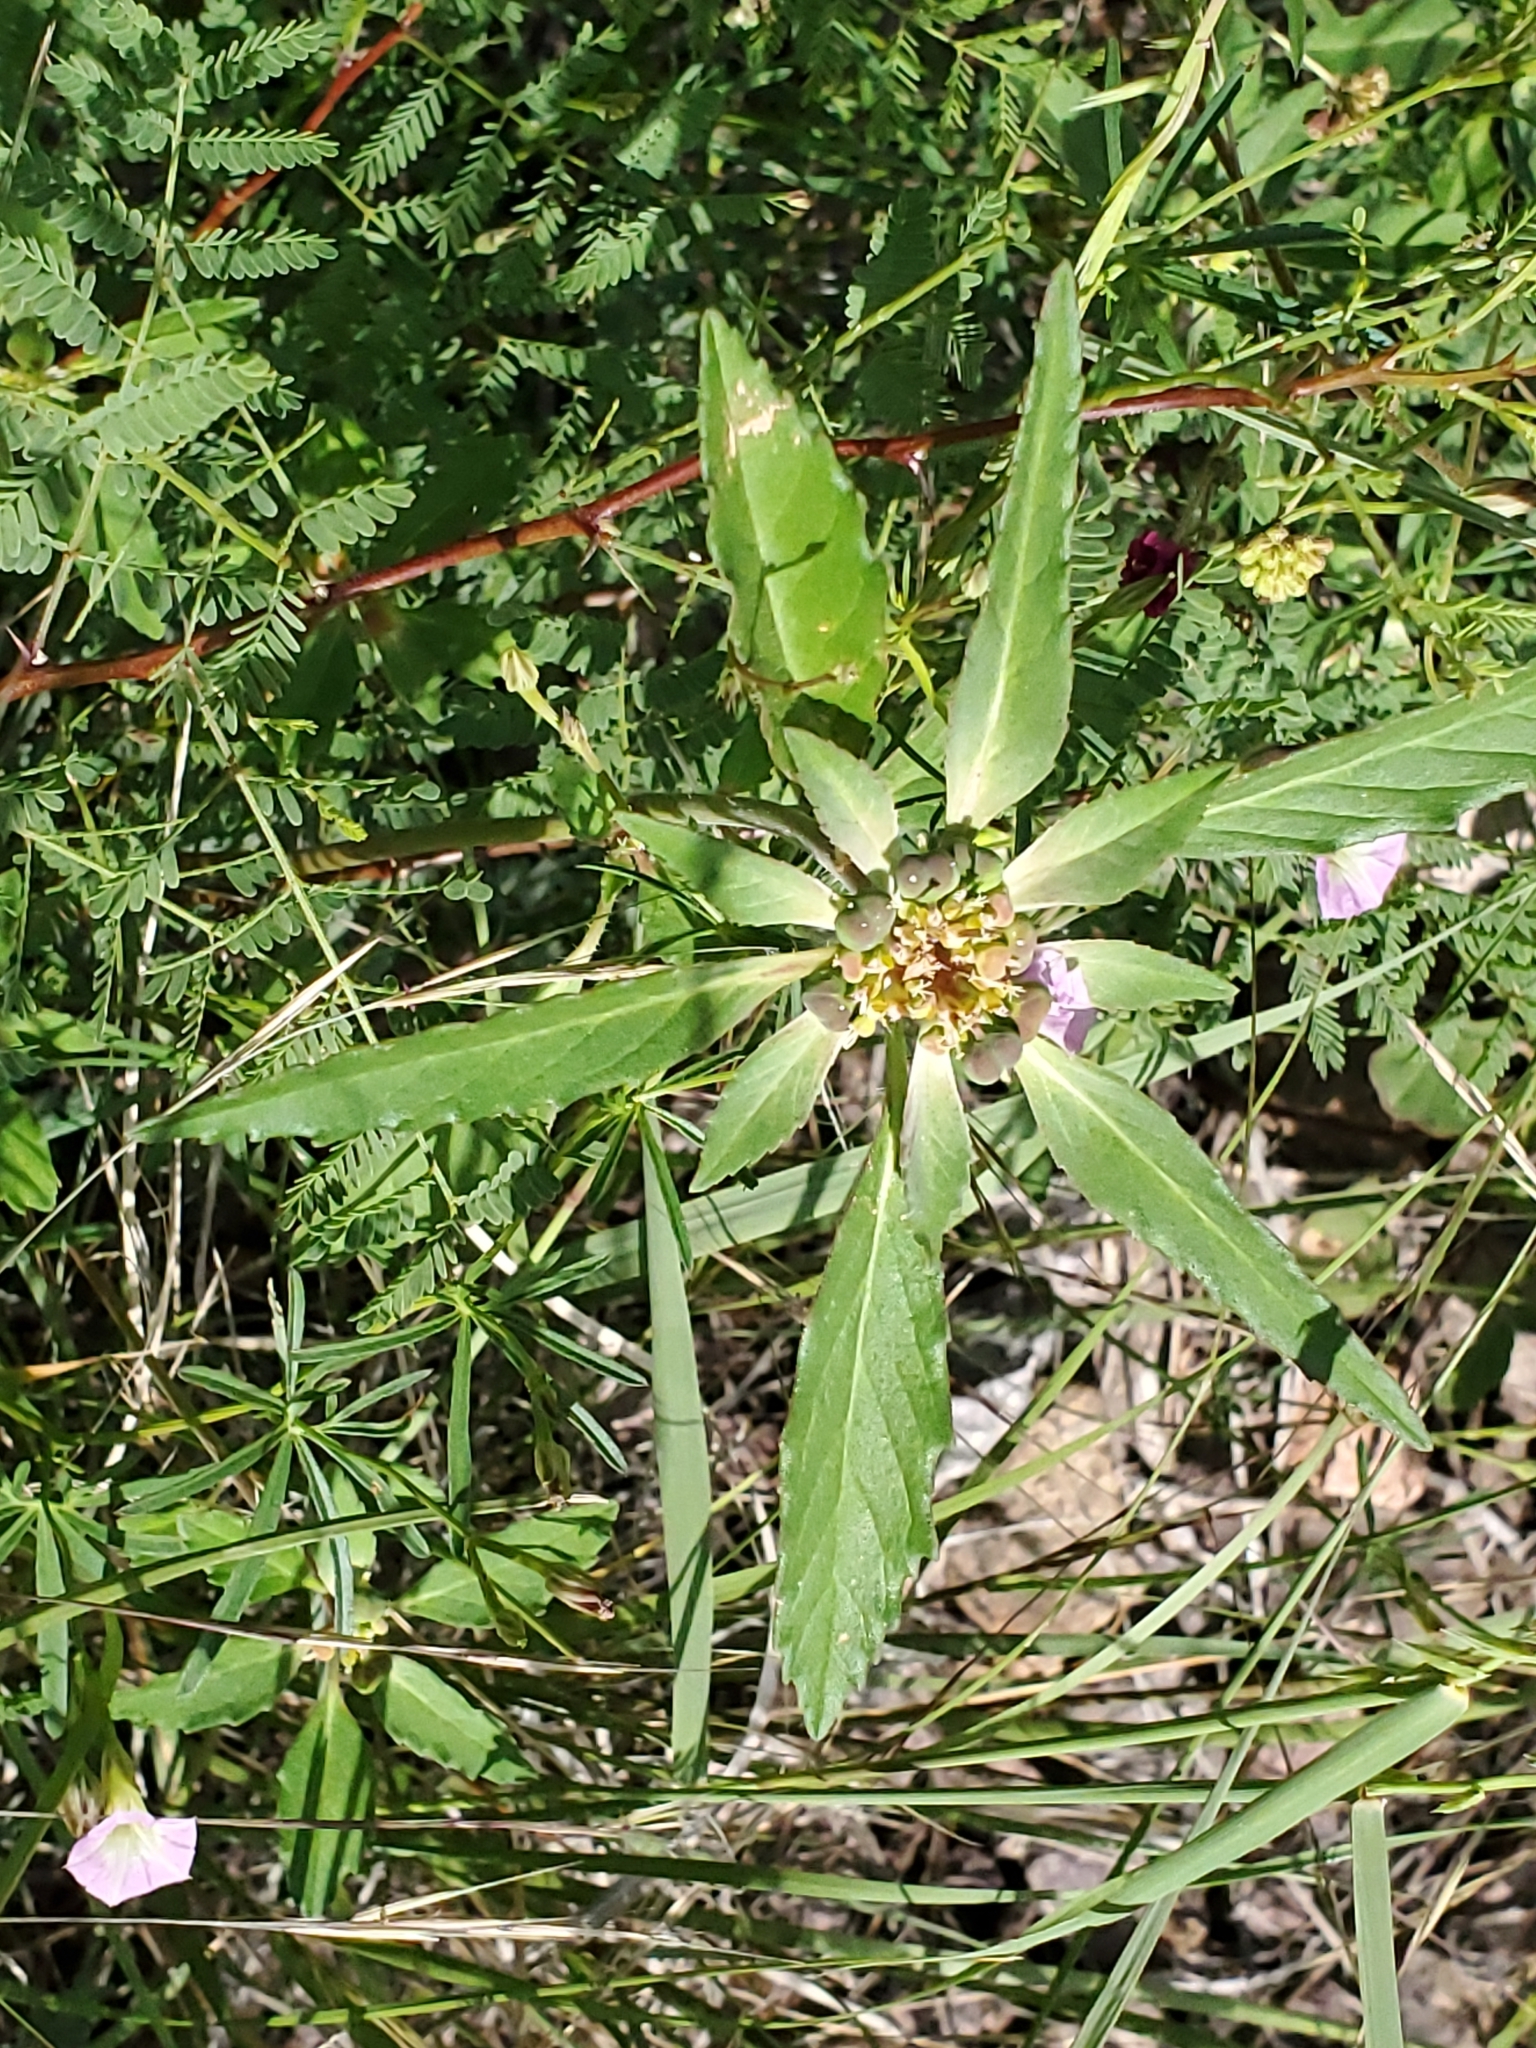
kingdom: Plantae
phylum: Tracheophyta
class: Magnoliopsida
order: Malpighiales
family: Euphorbiaceae
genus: Euphorbia
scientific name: Euphorbia davidii
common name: David's spurge
